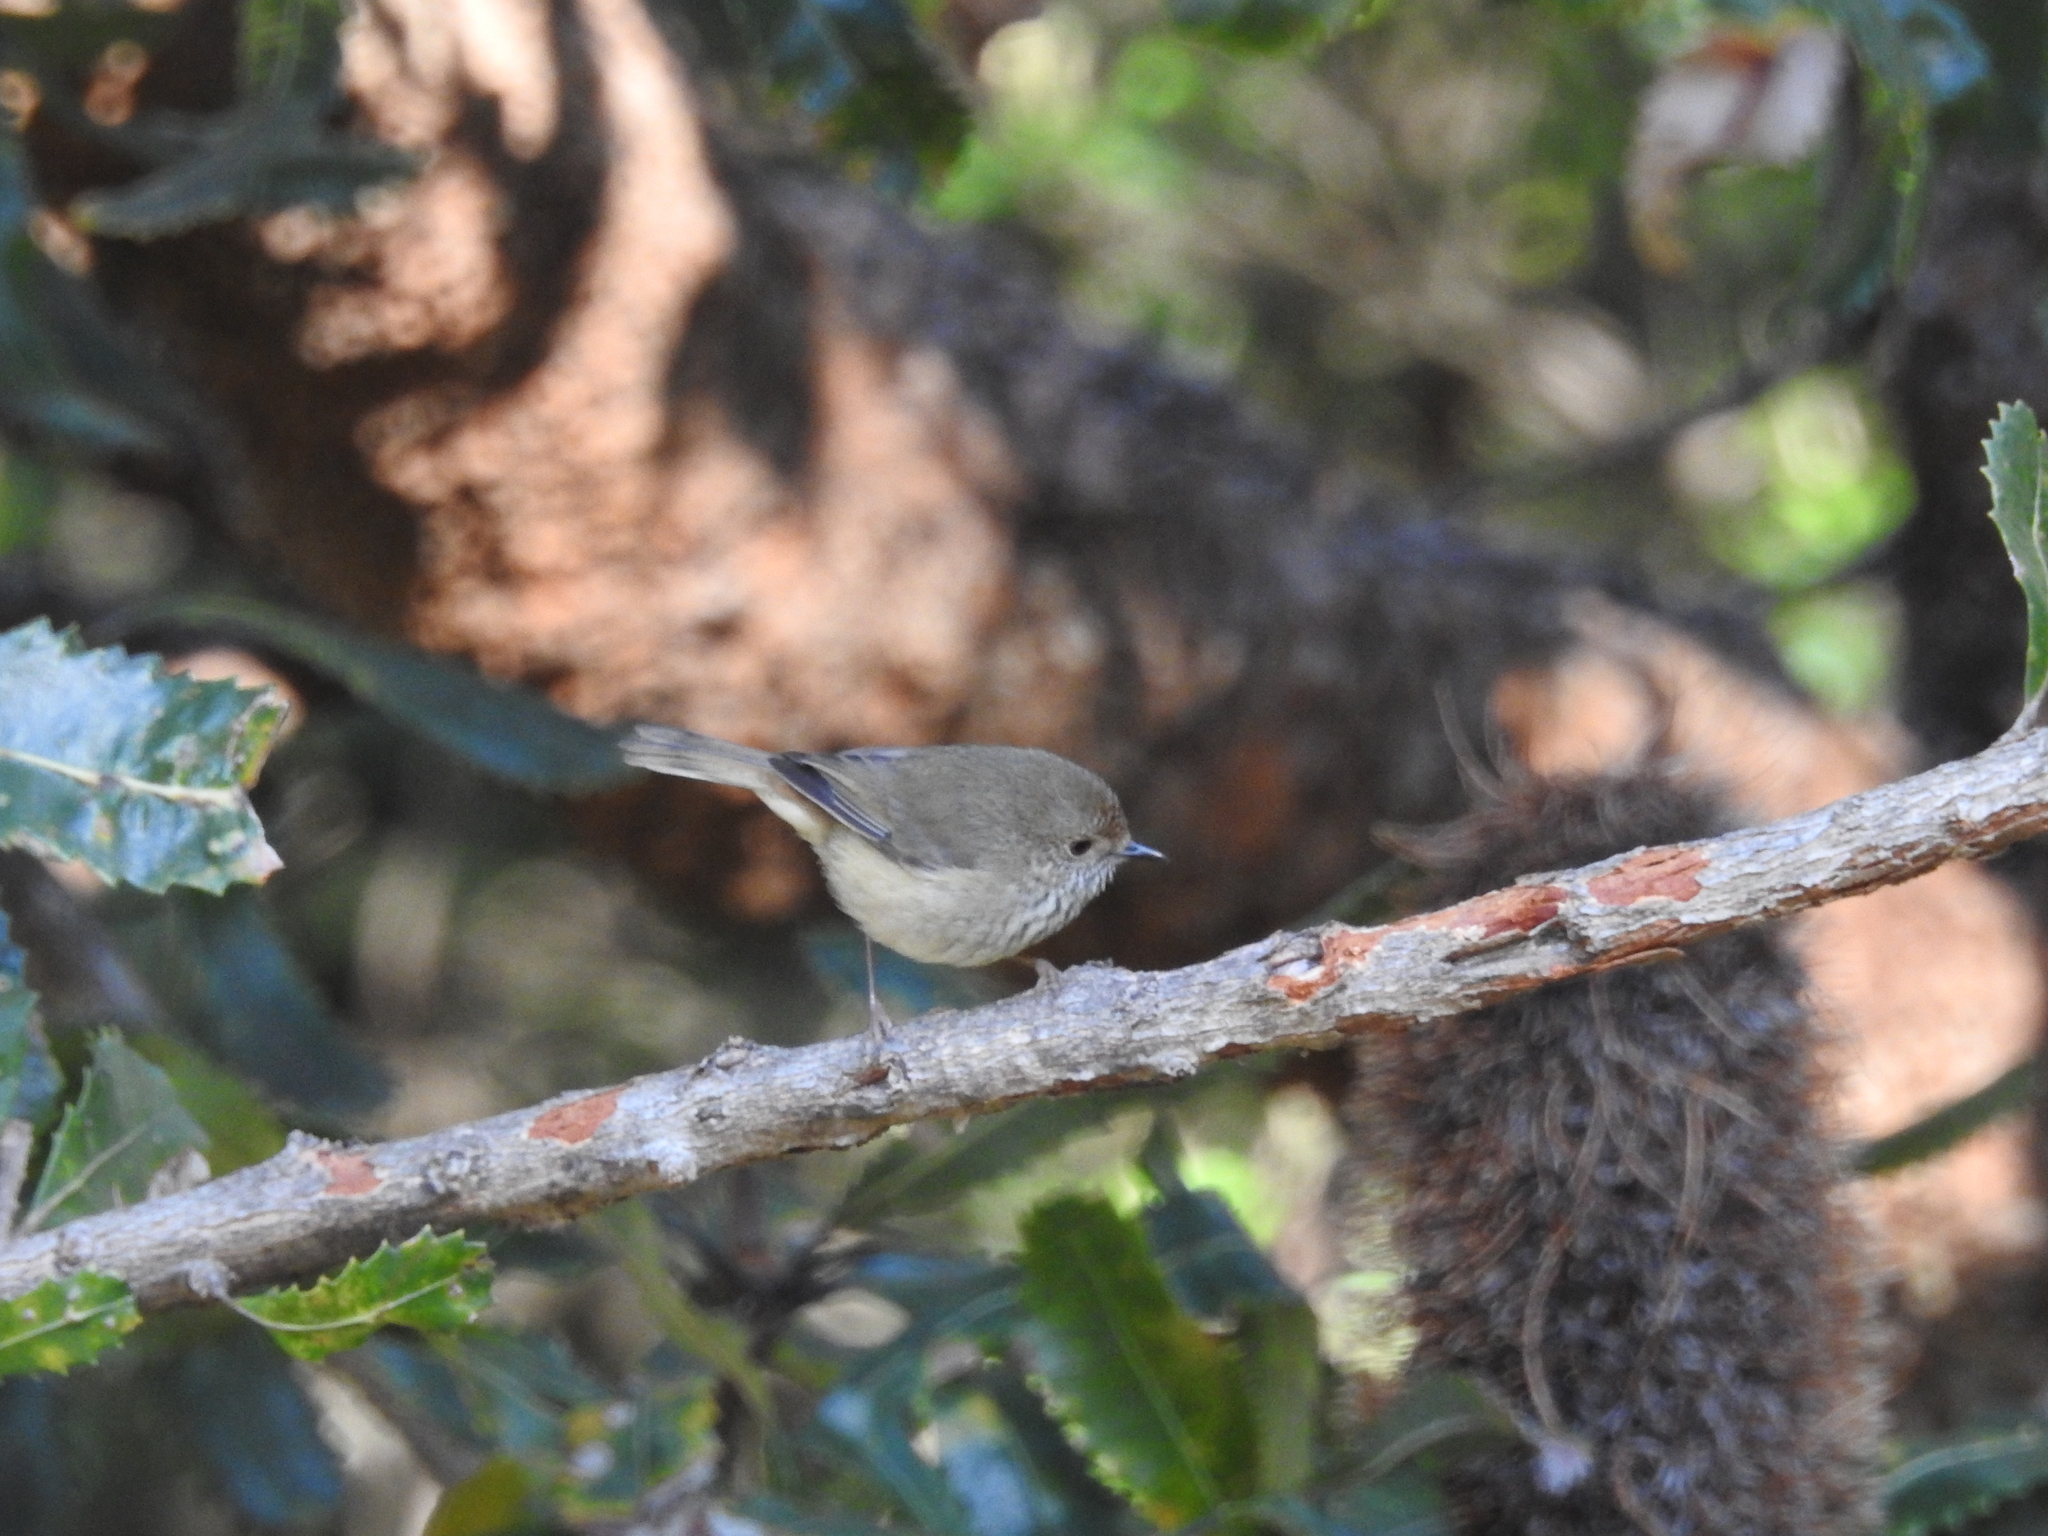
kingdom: Animalia
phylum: Chordata
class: Aves
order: Passeriformes
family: Acanthizidae
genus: Acanthiza
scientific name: Acanthiza pusilla
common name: Brown thornbill
